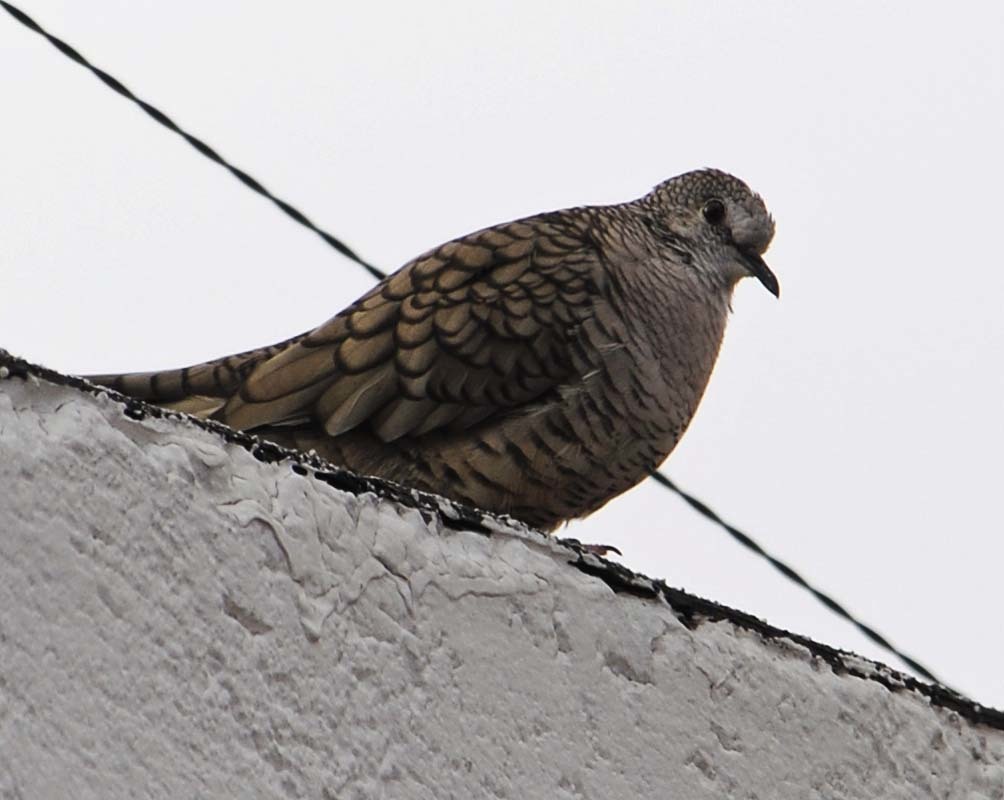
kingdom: Animalia
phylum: Chordata
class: Aves
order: Columbiformes
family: Columbidae
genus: Columbina
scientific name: Columbina inca
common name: Inca dove
